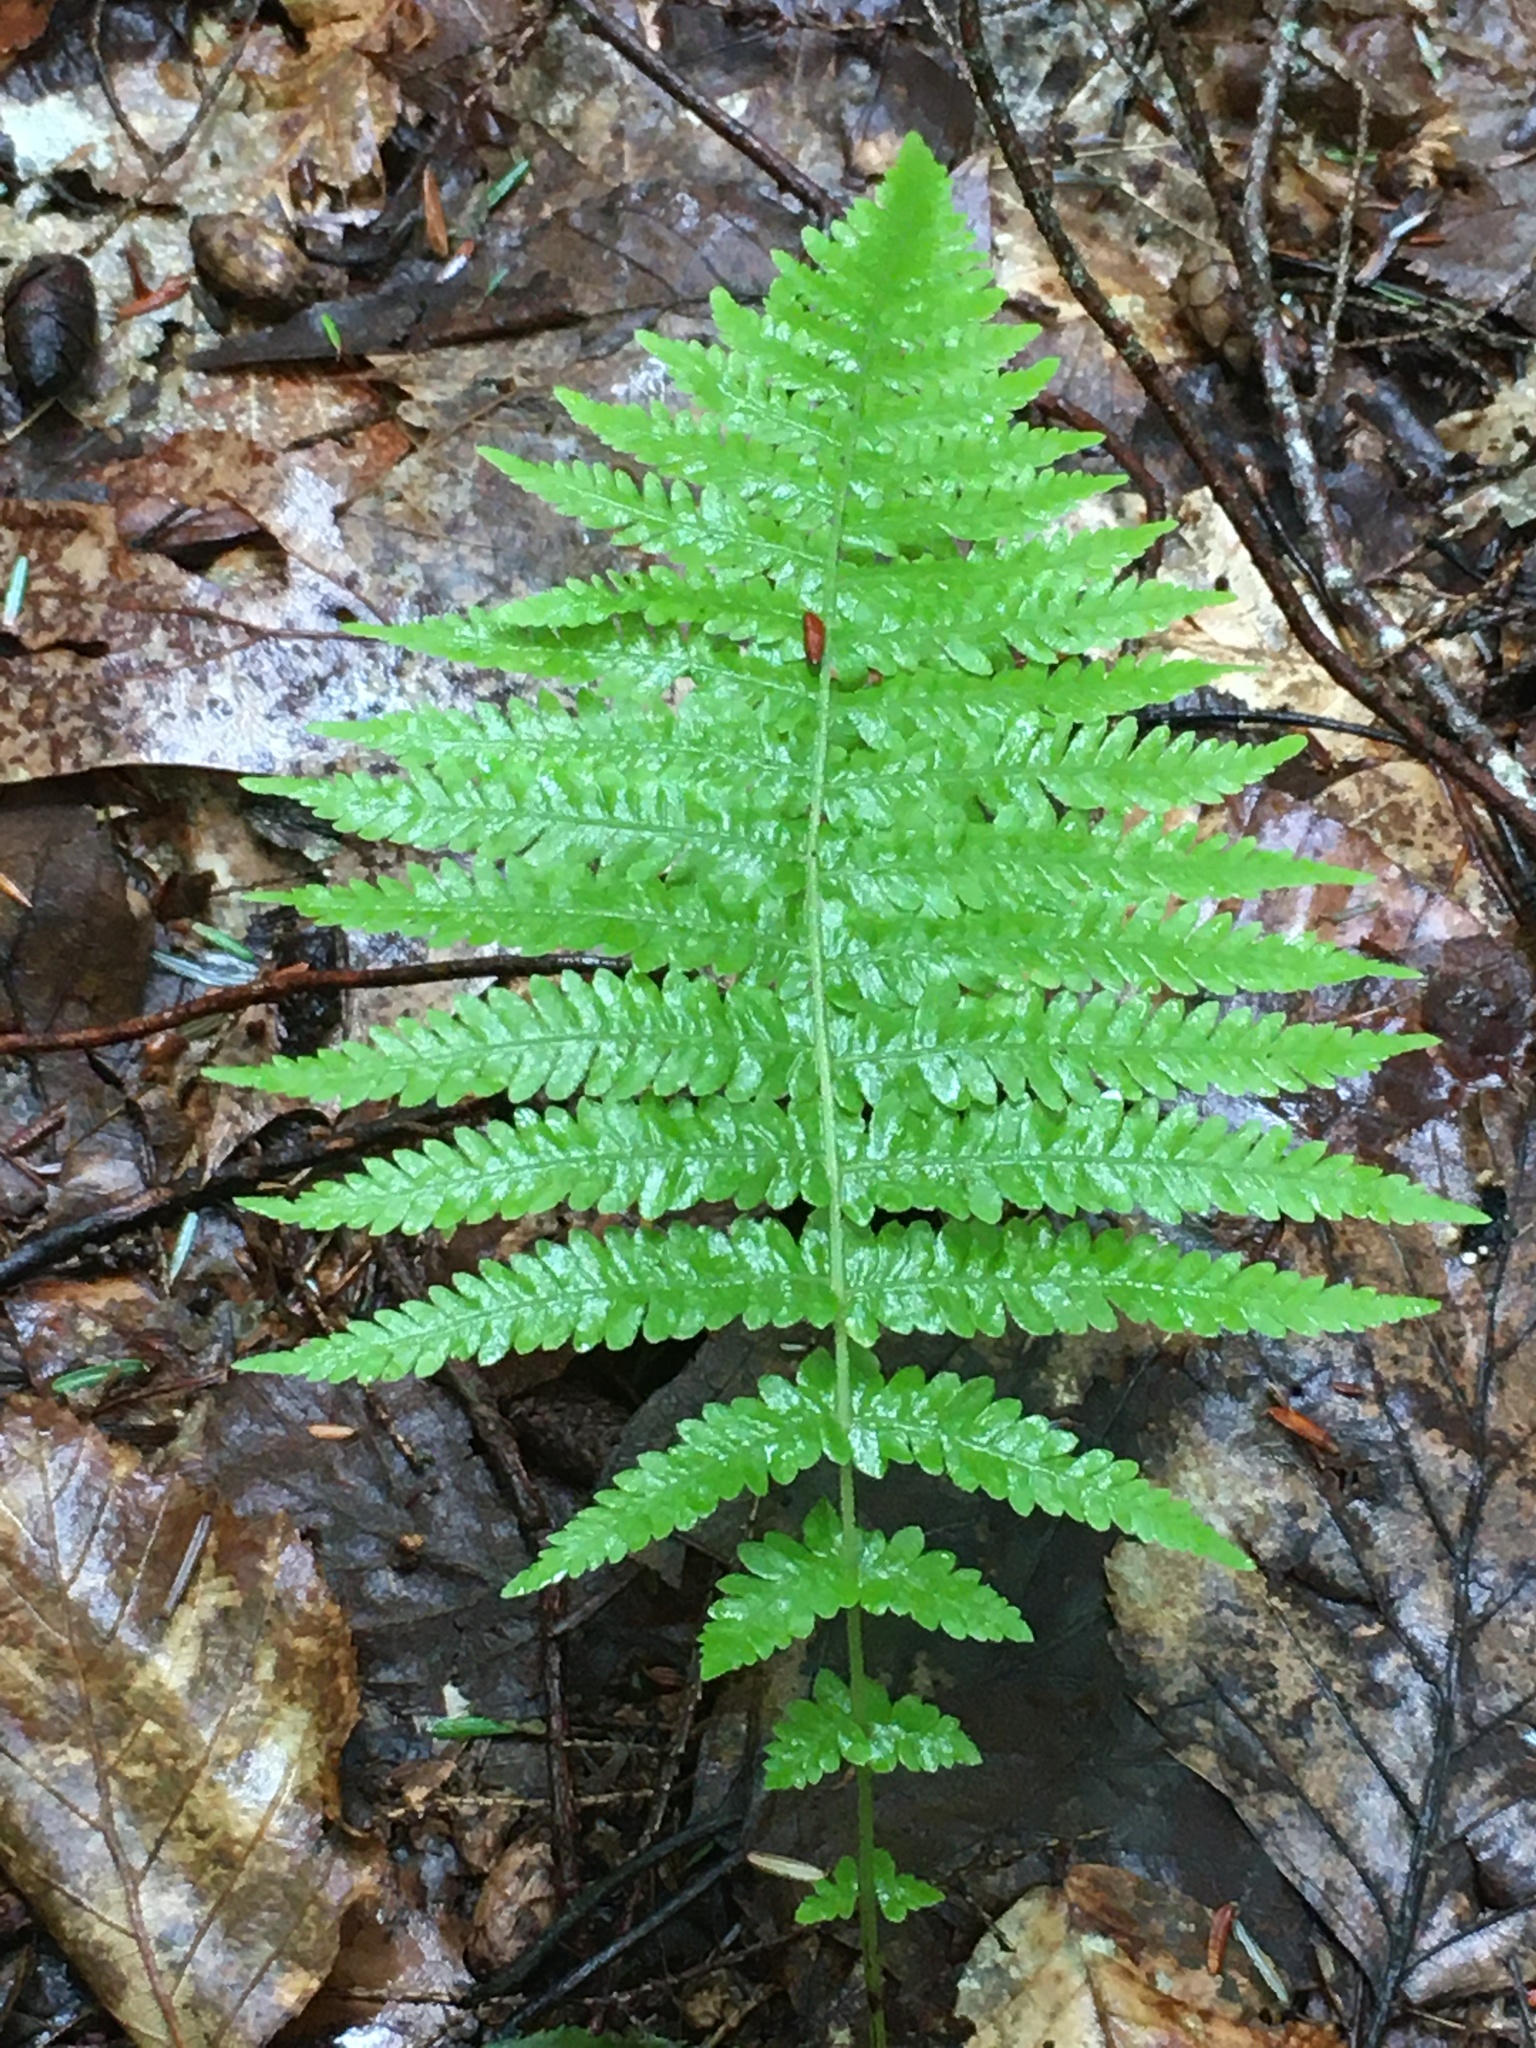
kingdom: Plantae
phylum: Tracheophyta
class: Polypodiopsida
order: Polypodiales
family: Thelypteridaceae
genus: Amauropelta
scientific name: Amauropelta noveboracensis
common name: New york fern
